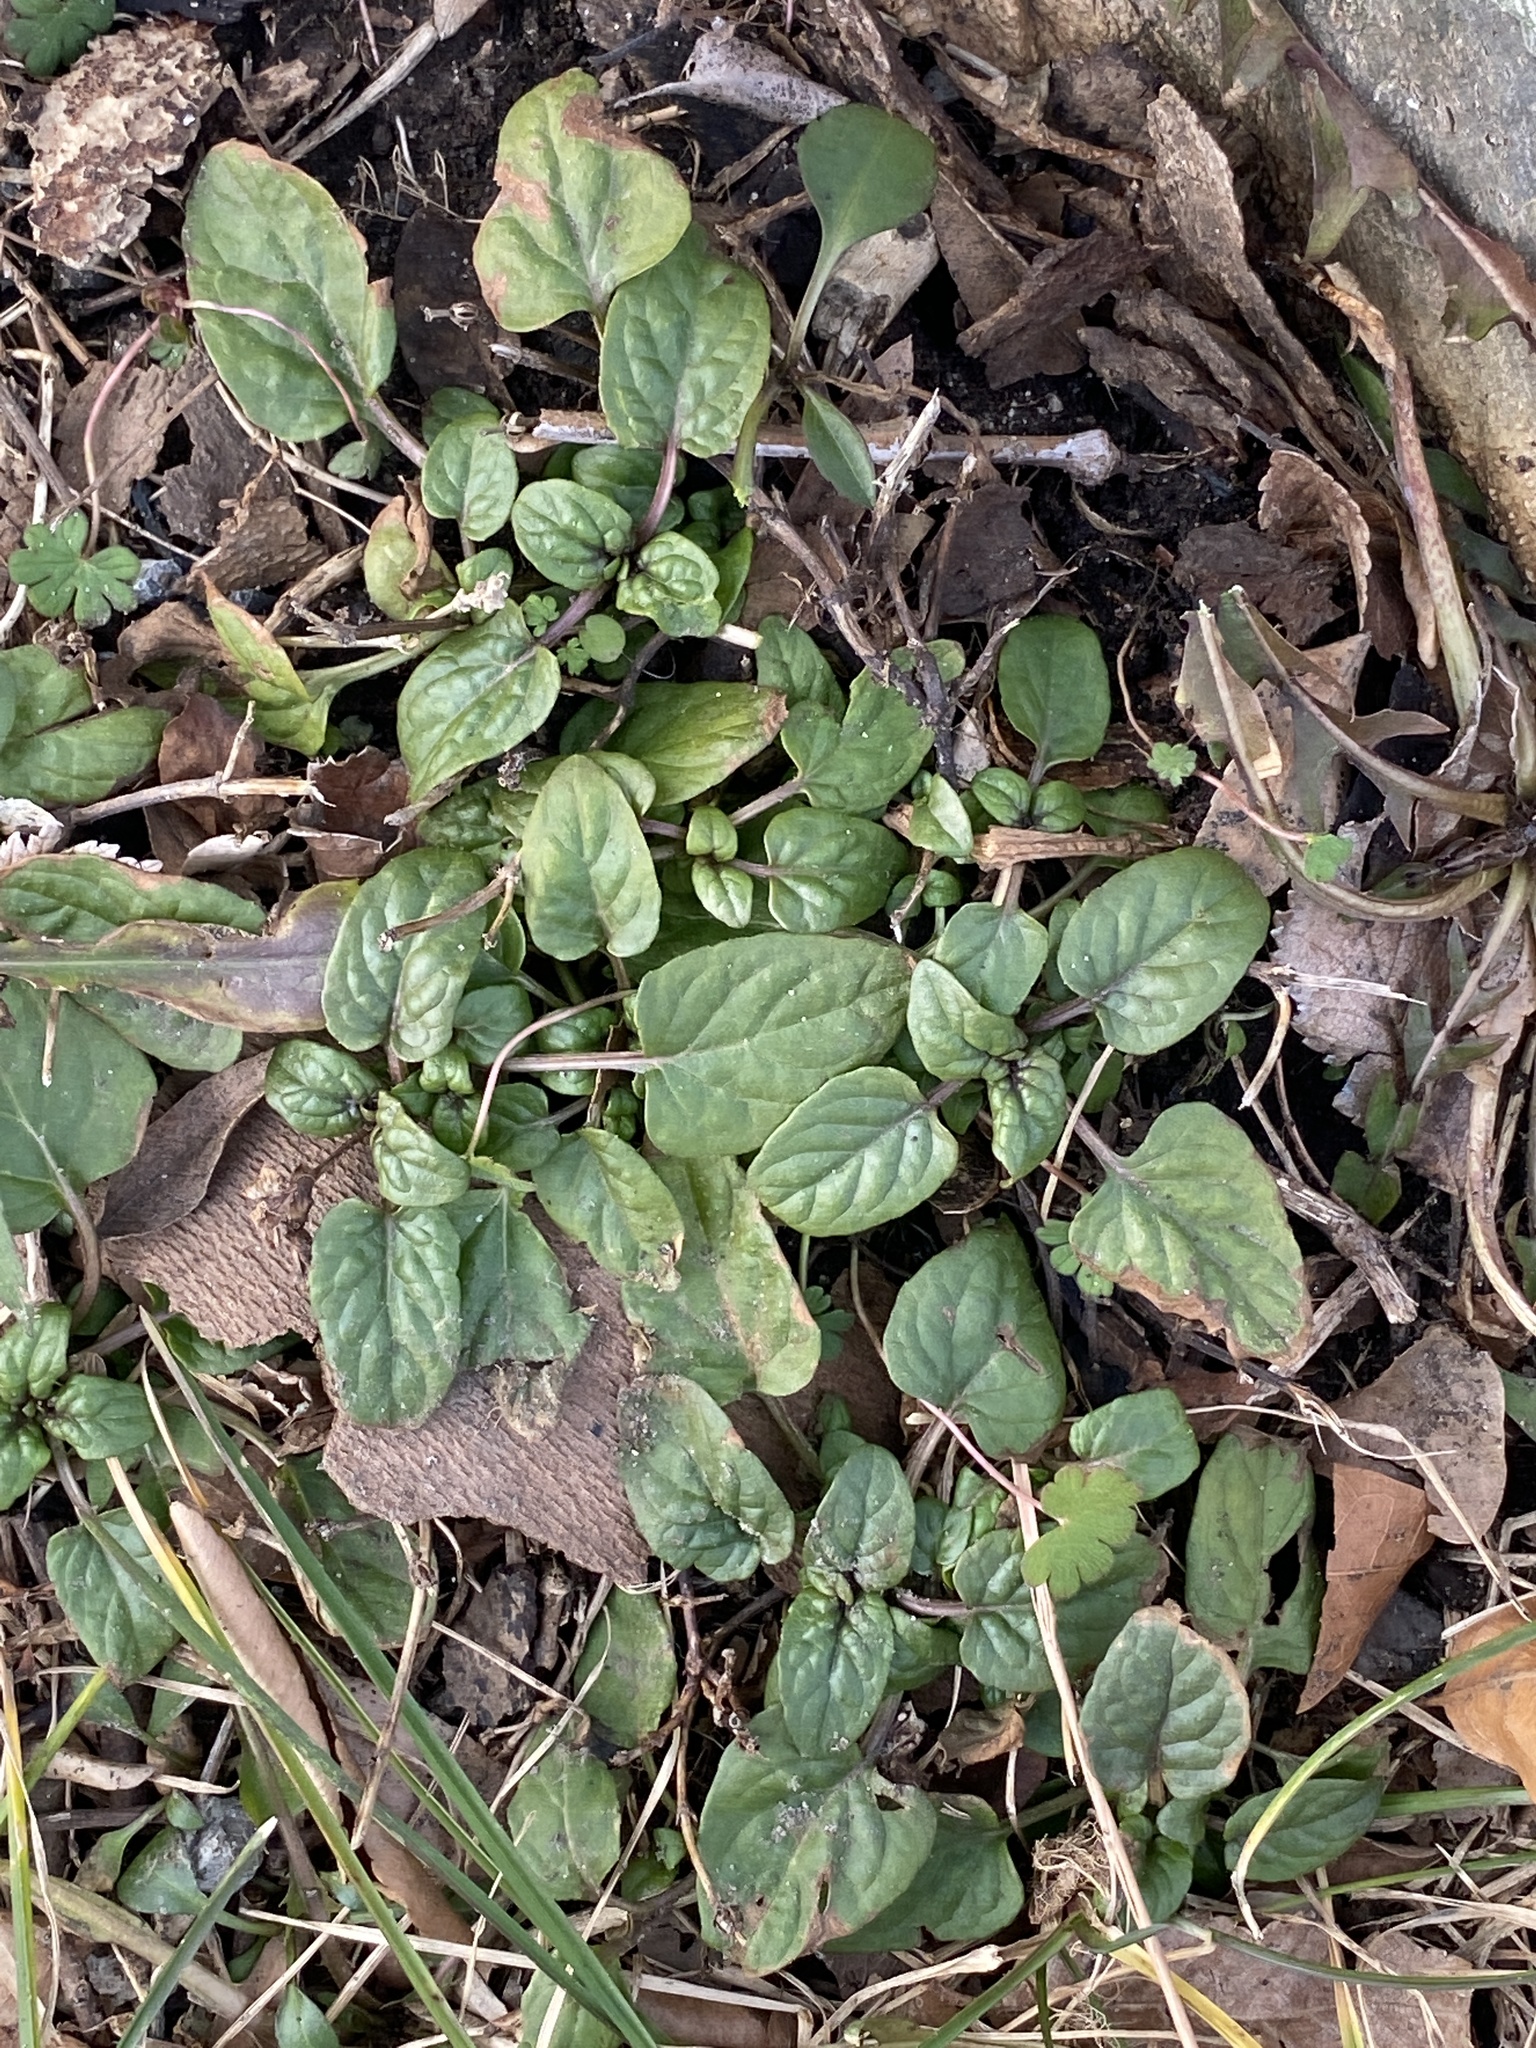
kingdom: Plantae
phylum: Tracheophyta
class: Magnoliopsida
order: Lamiales
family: Lamiaceae
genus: Prunella
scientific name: Prunella vulgaris
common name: Heal-all
